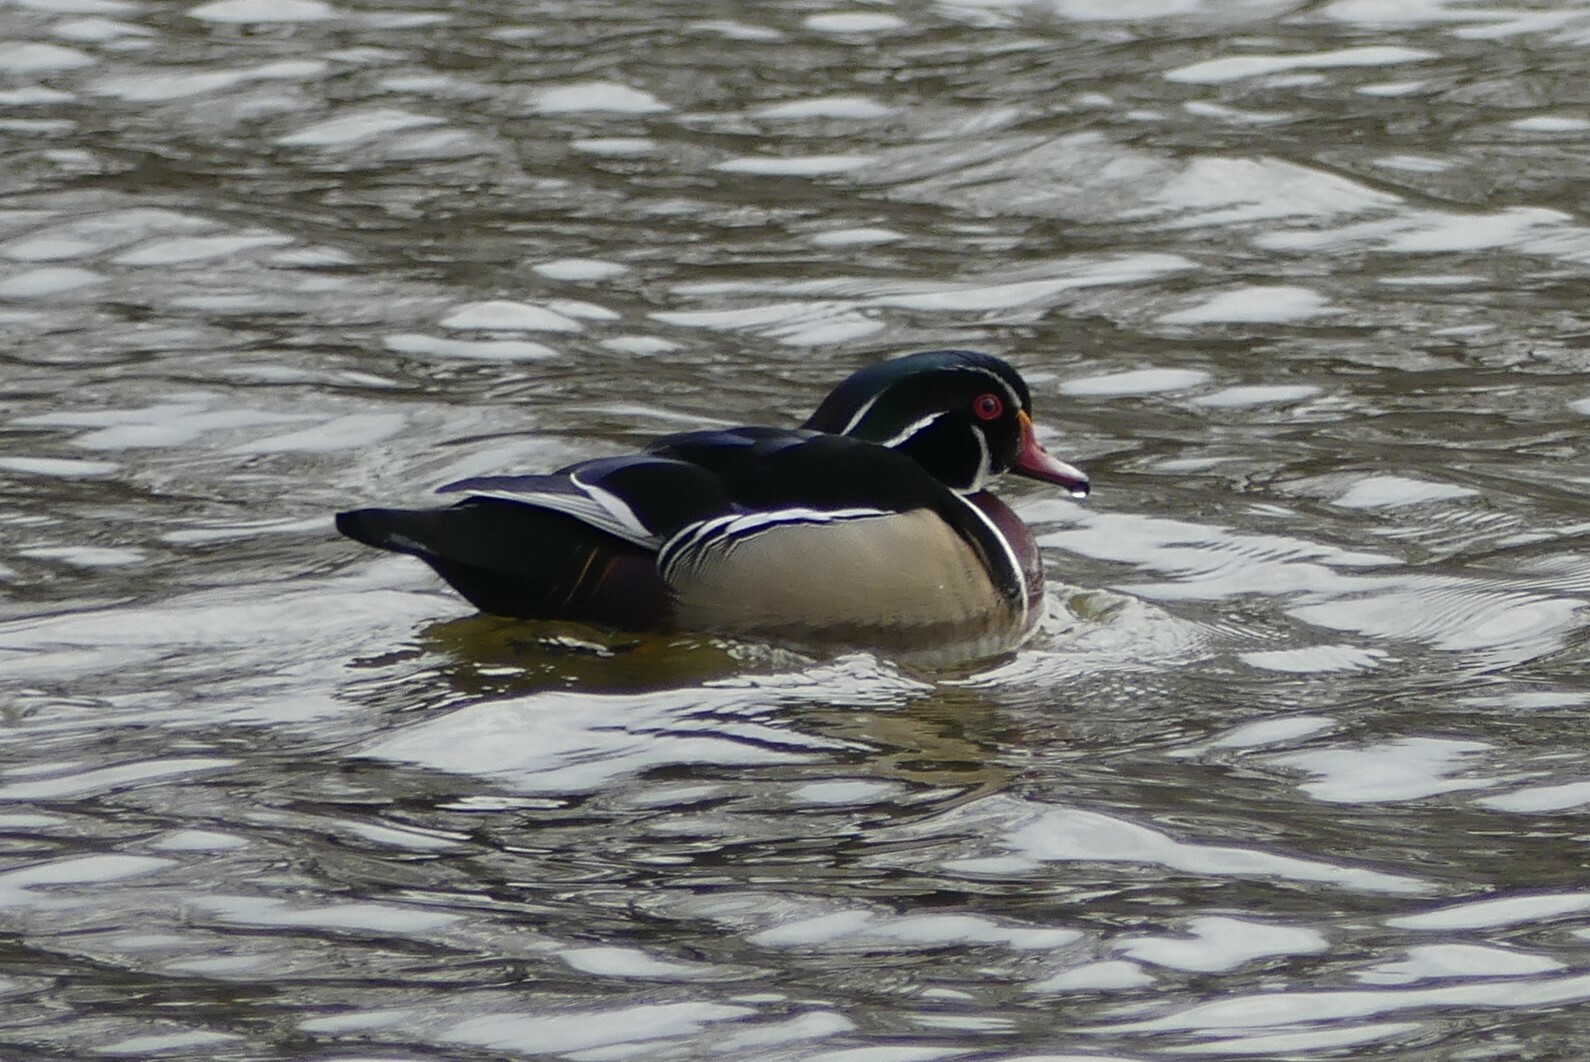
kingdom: Animalia
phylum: Chordata
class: Aves
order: Anseriformes
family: Anatidae
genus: Aix
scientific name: Aix sponsa
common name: Wood duck
